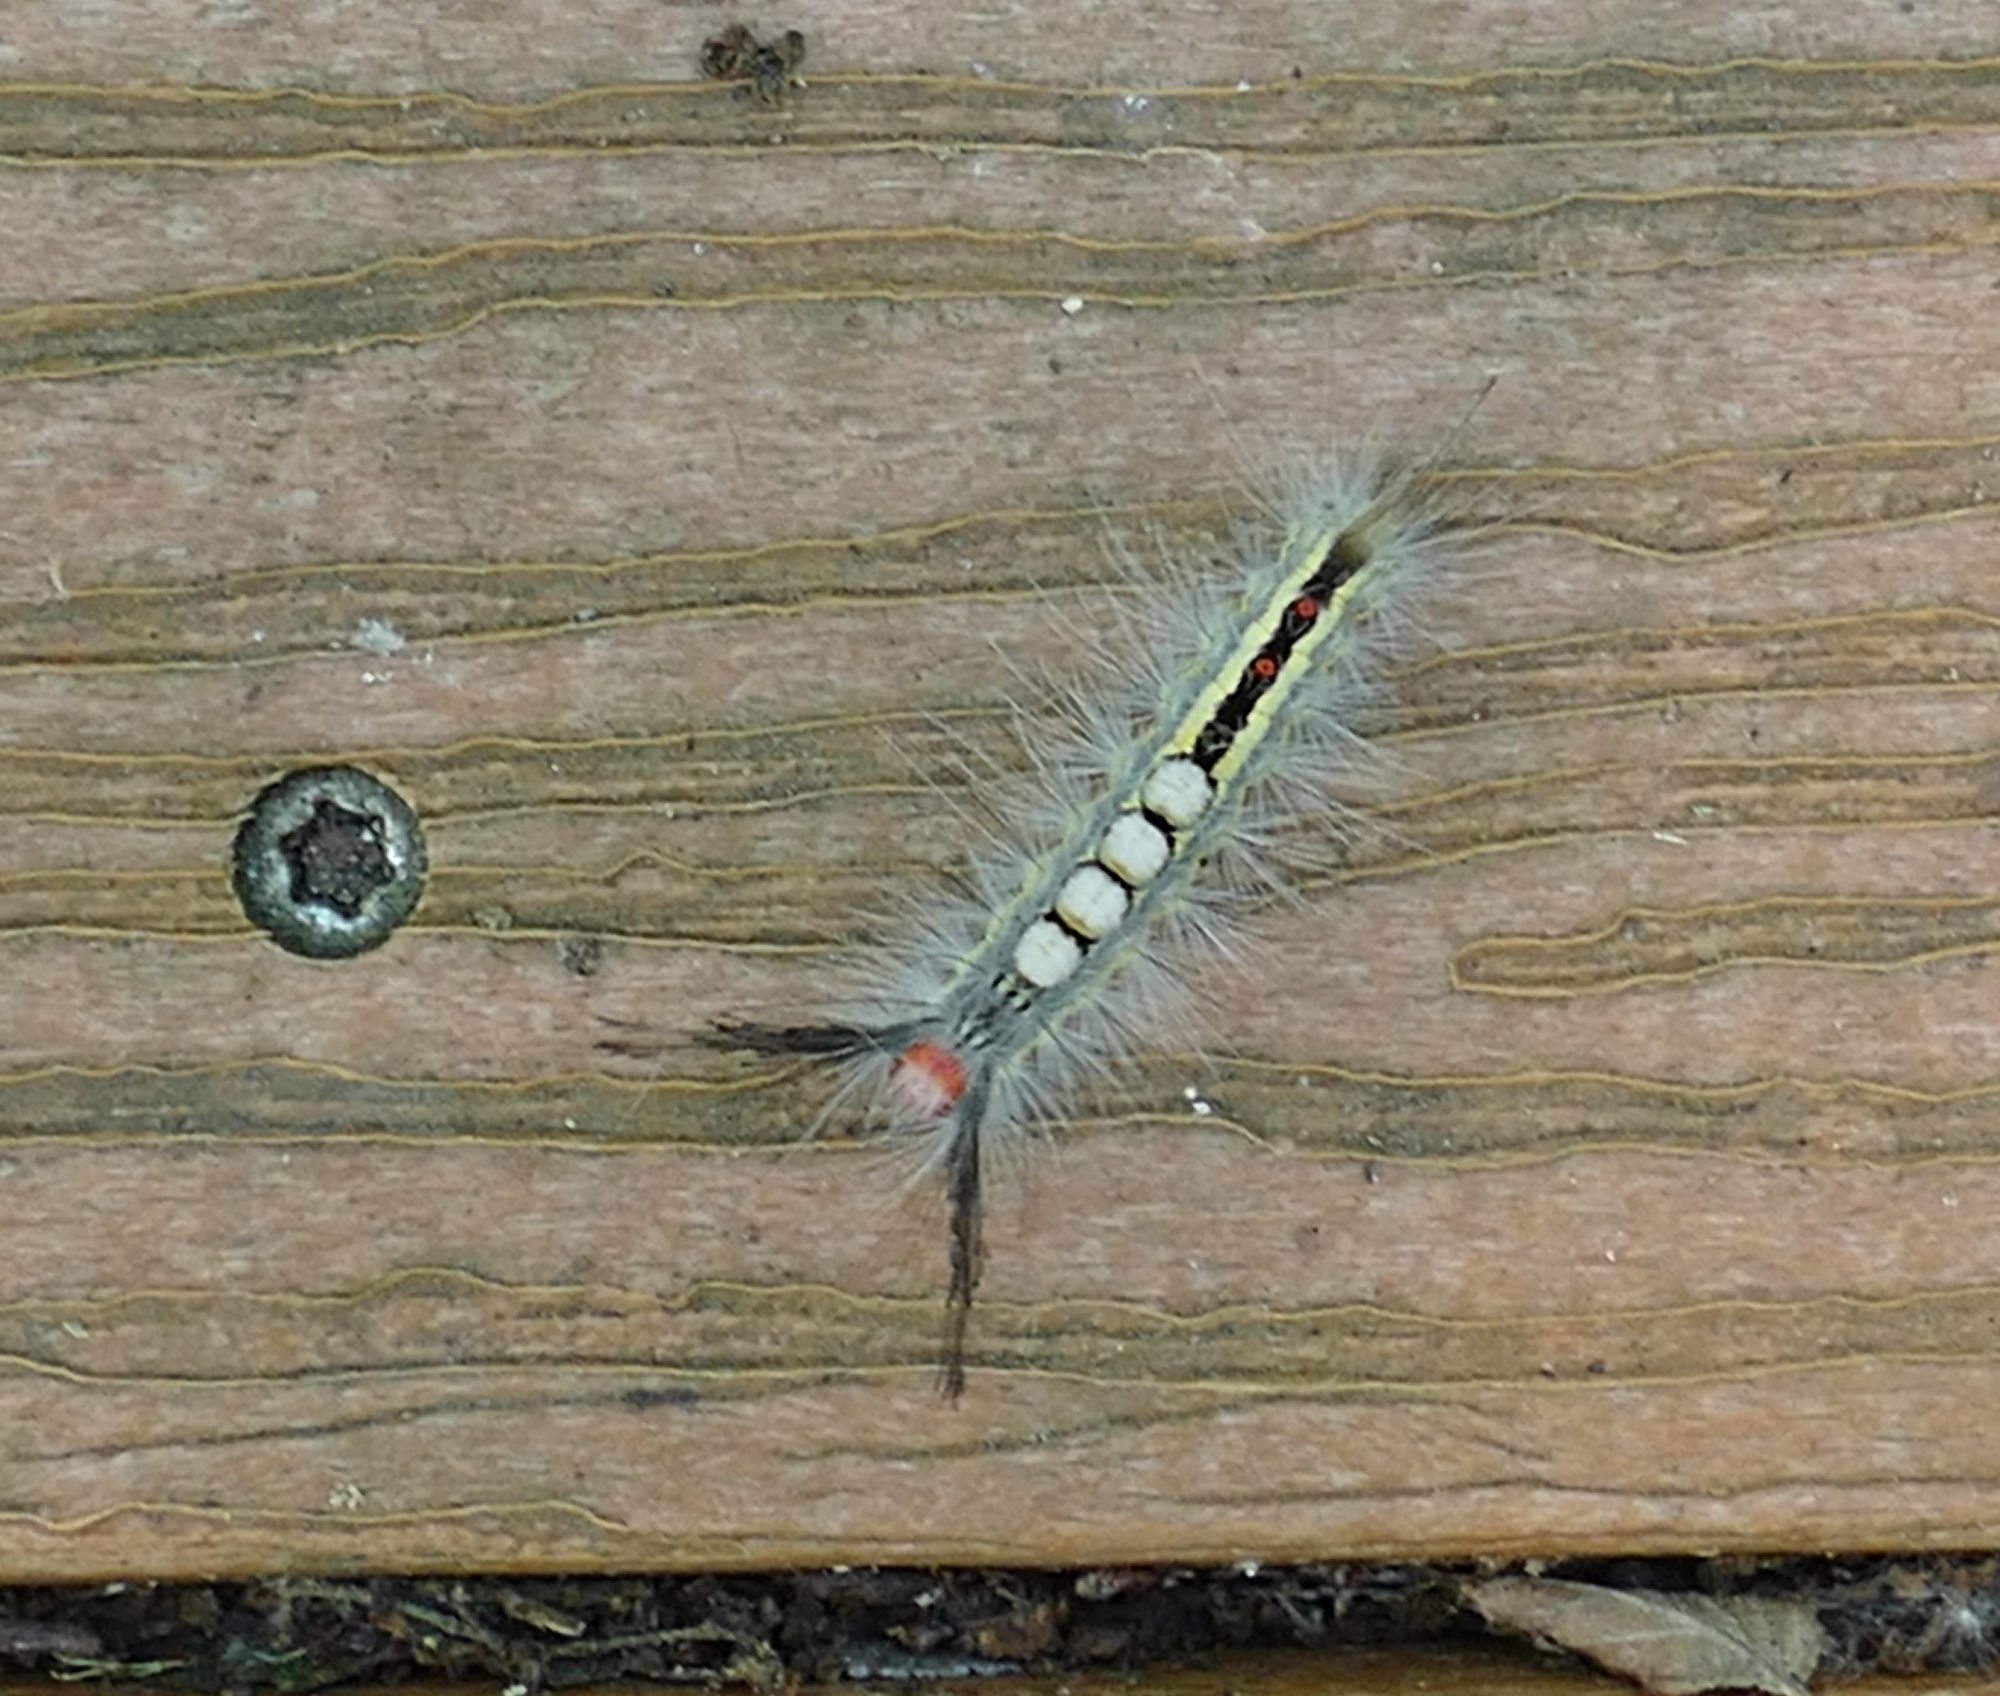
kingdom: Animalia
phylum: Arthropoda
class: Insecta
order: Lepidoptera
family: Erebidae
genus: Orgyia
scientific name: Orgyia leucostigma
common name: White-marked tussock moth
